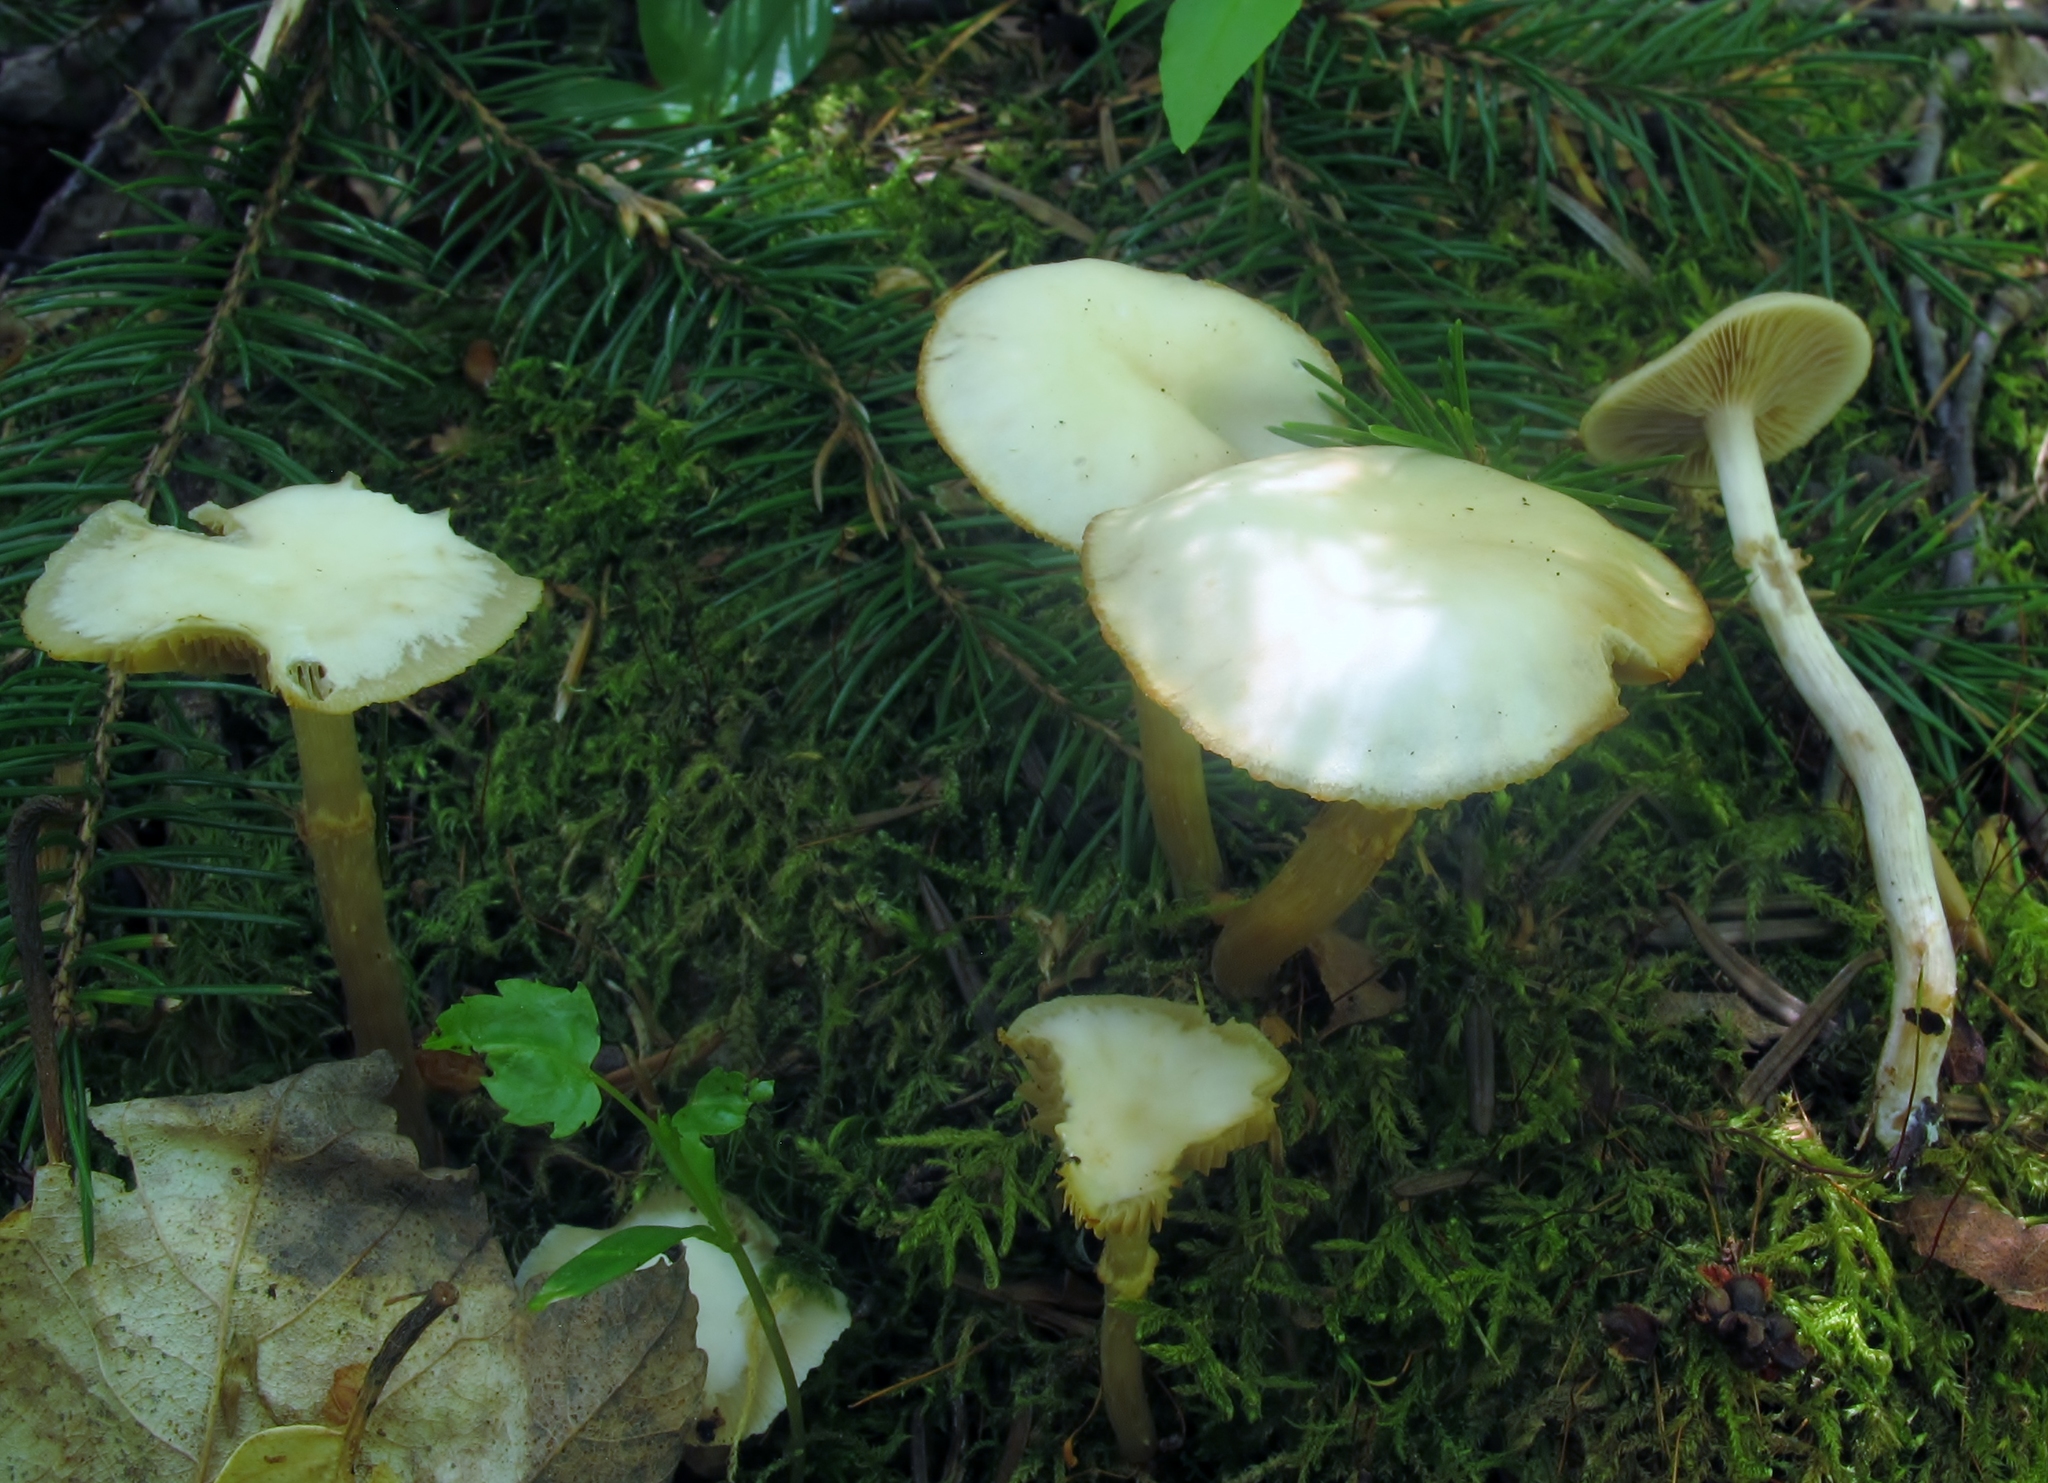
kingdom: Fungi
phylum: Basidiomycota
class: Agaricomycetes
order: Agaricales
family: Strophariaceae
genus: Kuehneromyces
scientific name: Kuehneromyces marginellus
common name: Sheathed woodtuft
